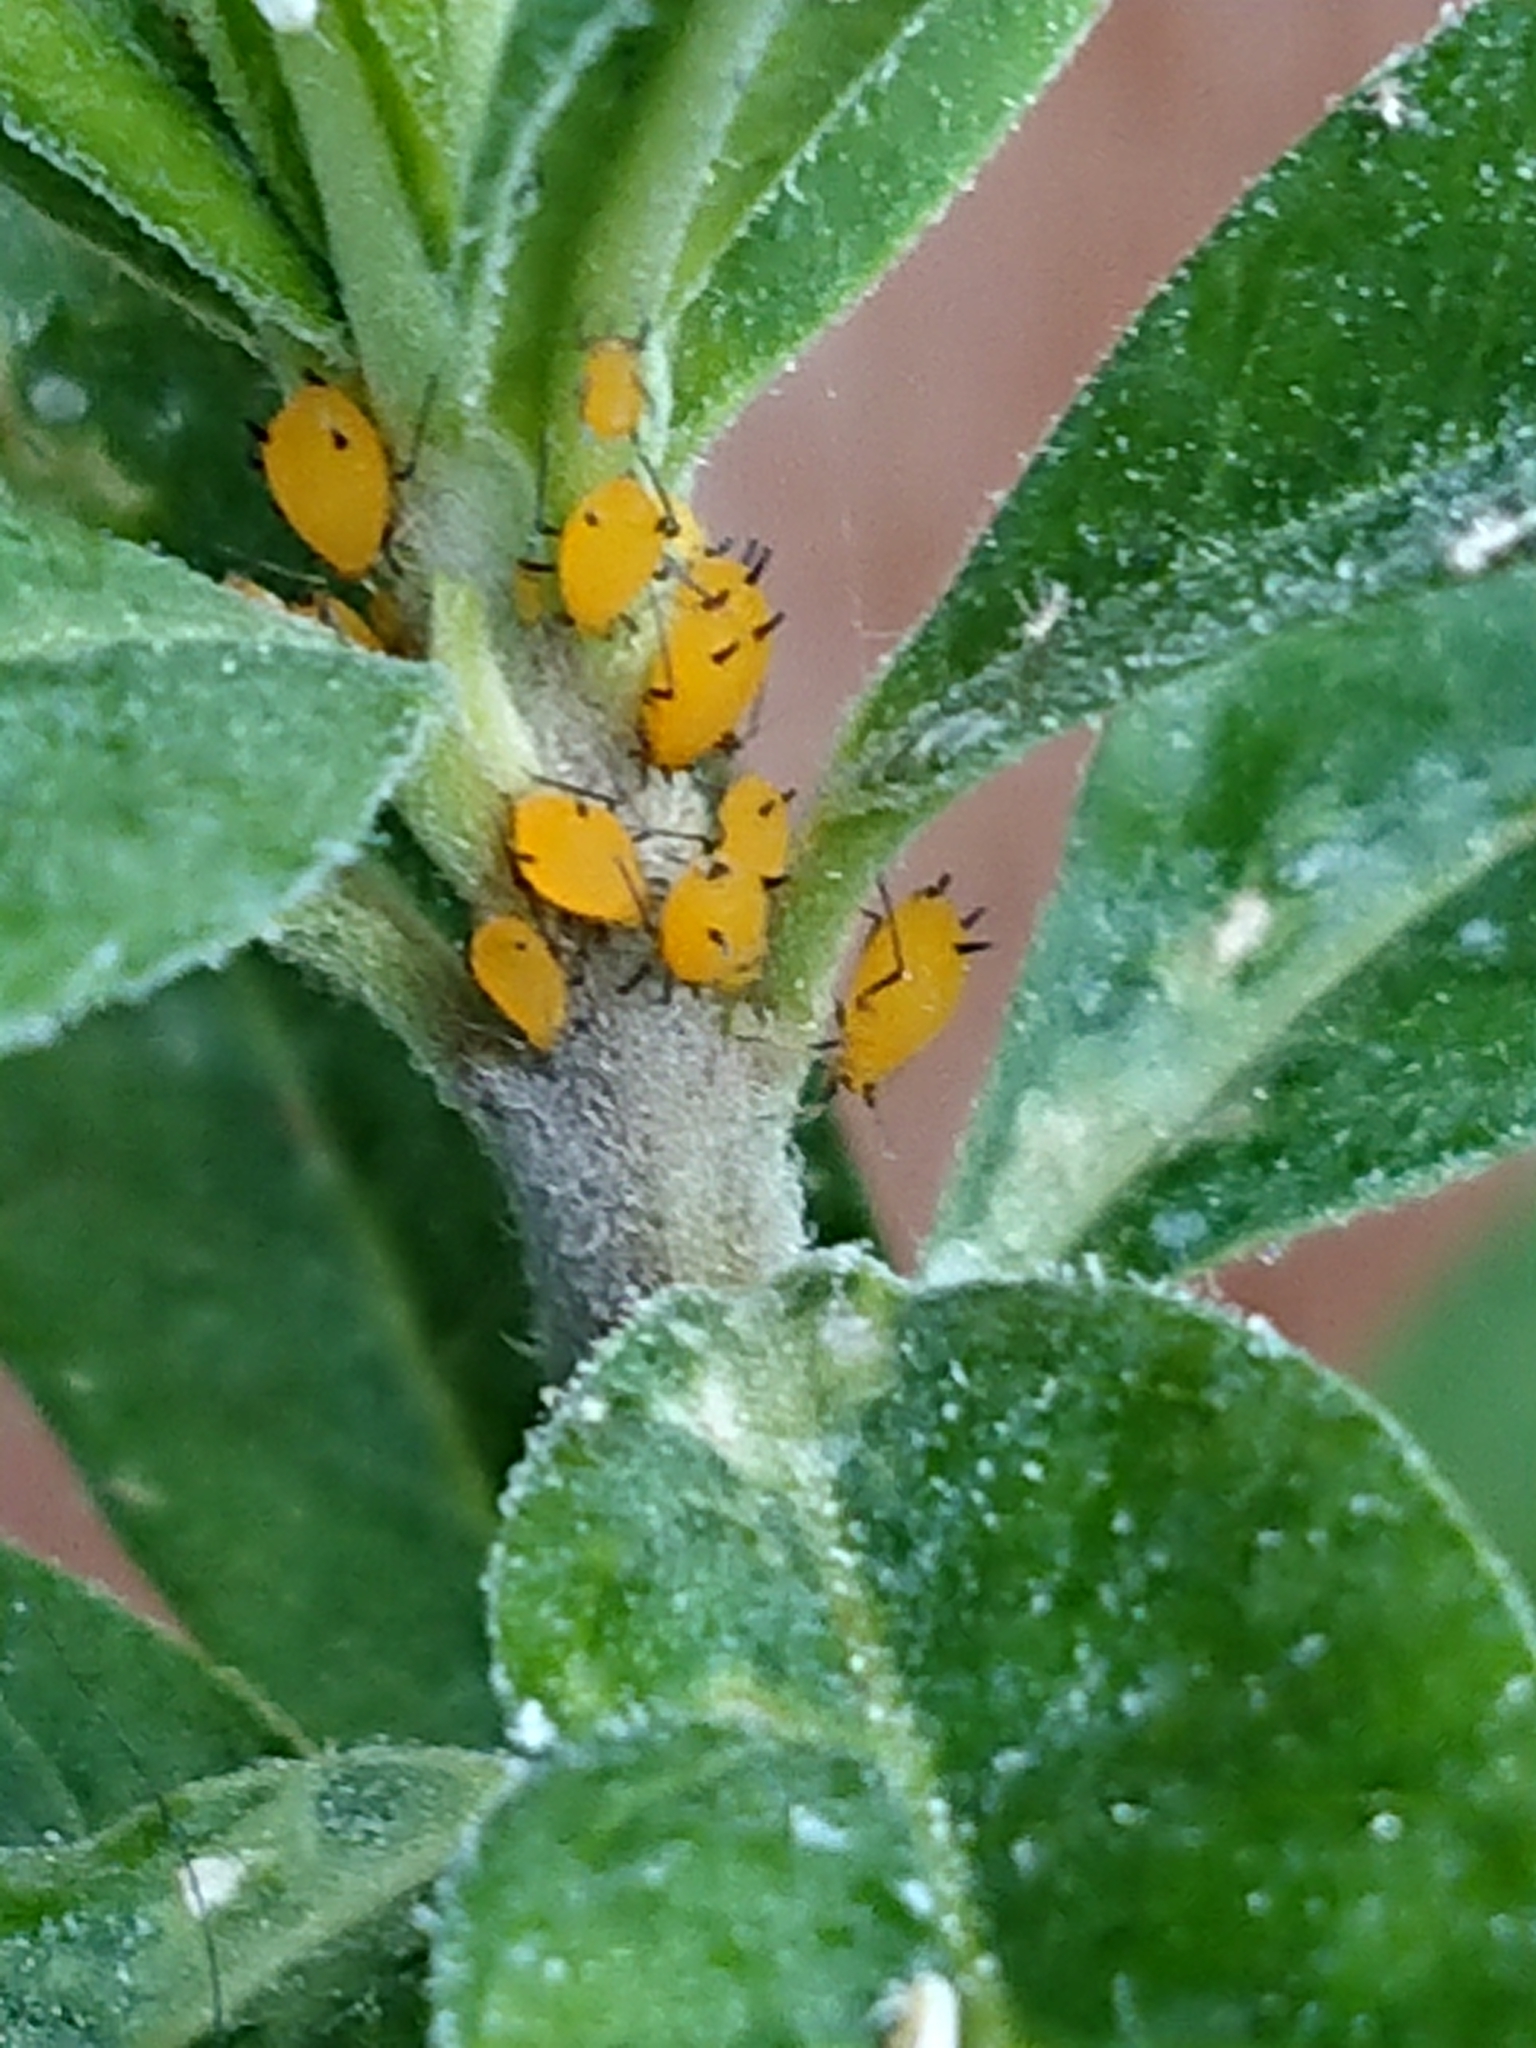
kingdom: Animalia
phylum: Arthropoda
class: Insecta
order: Hemiptera
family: Aphididae
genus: Aphis
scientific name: Aphis nerii
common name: Oleander aphid
